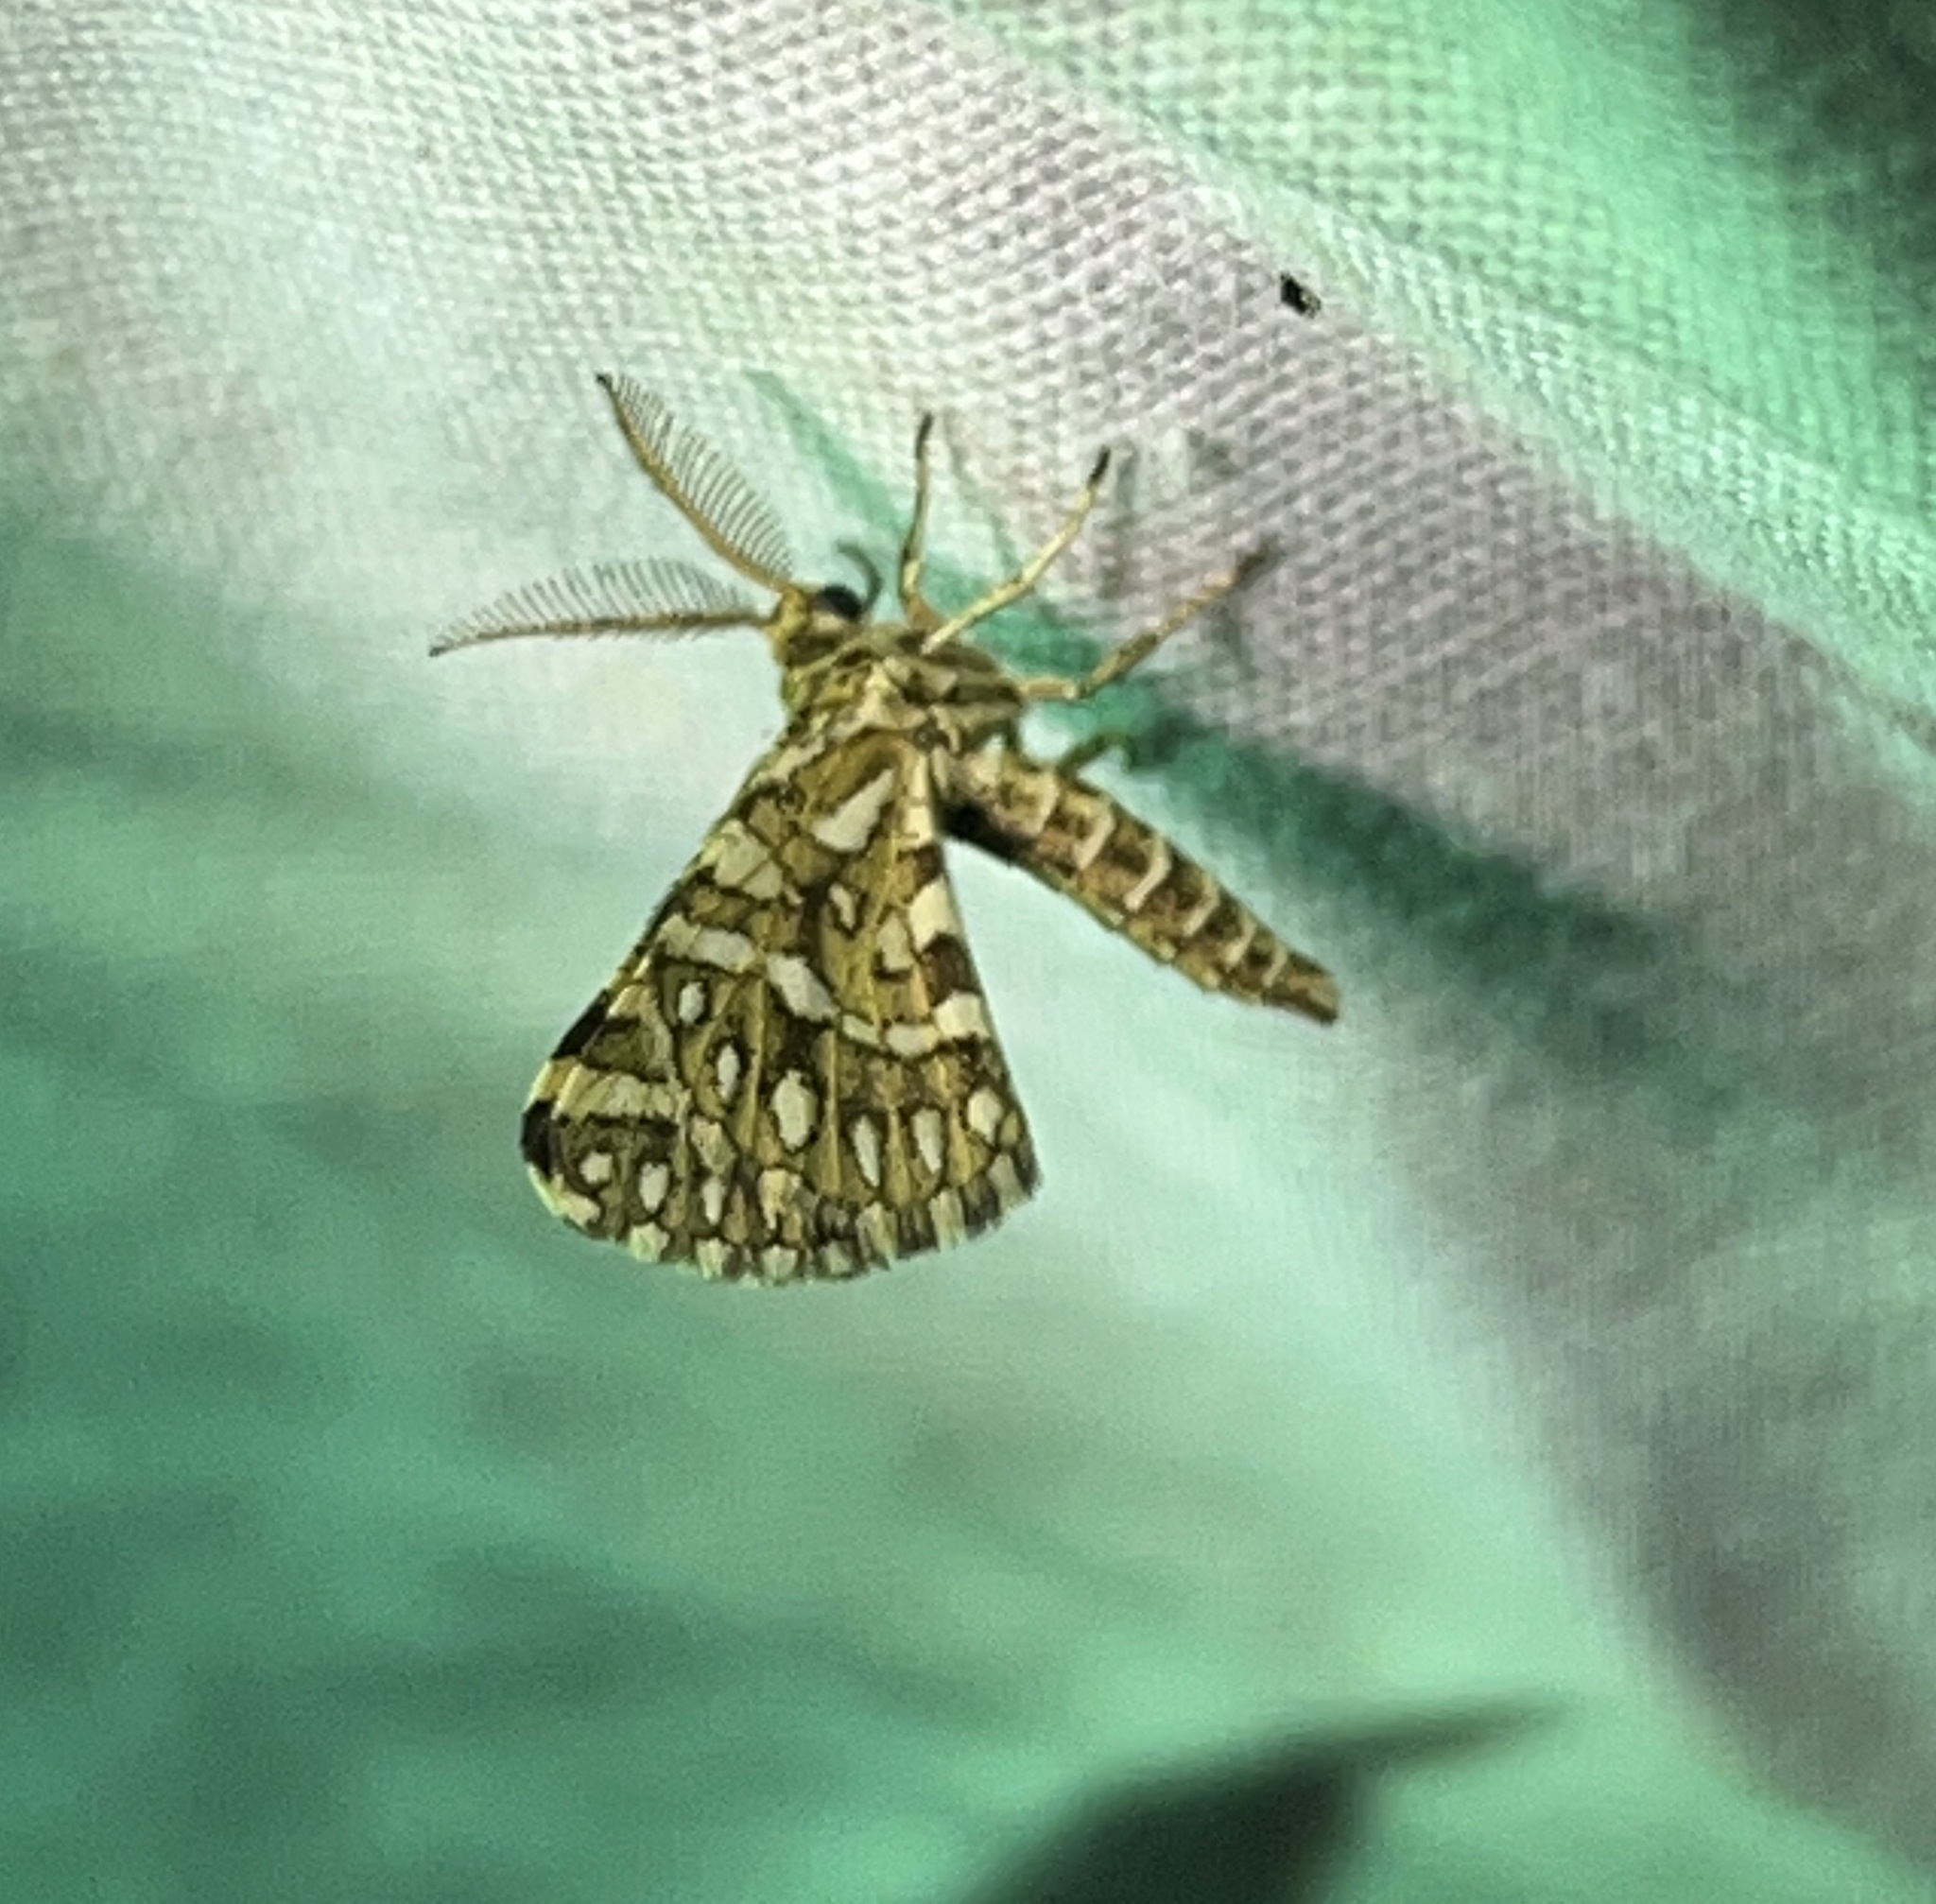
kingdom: Animalia
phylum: Arthropoda
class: Insecta
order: Lepidoptera
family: Geometridae
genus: Narraga
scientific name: Narraga fimetaria
